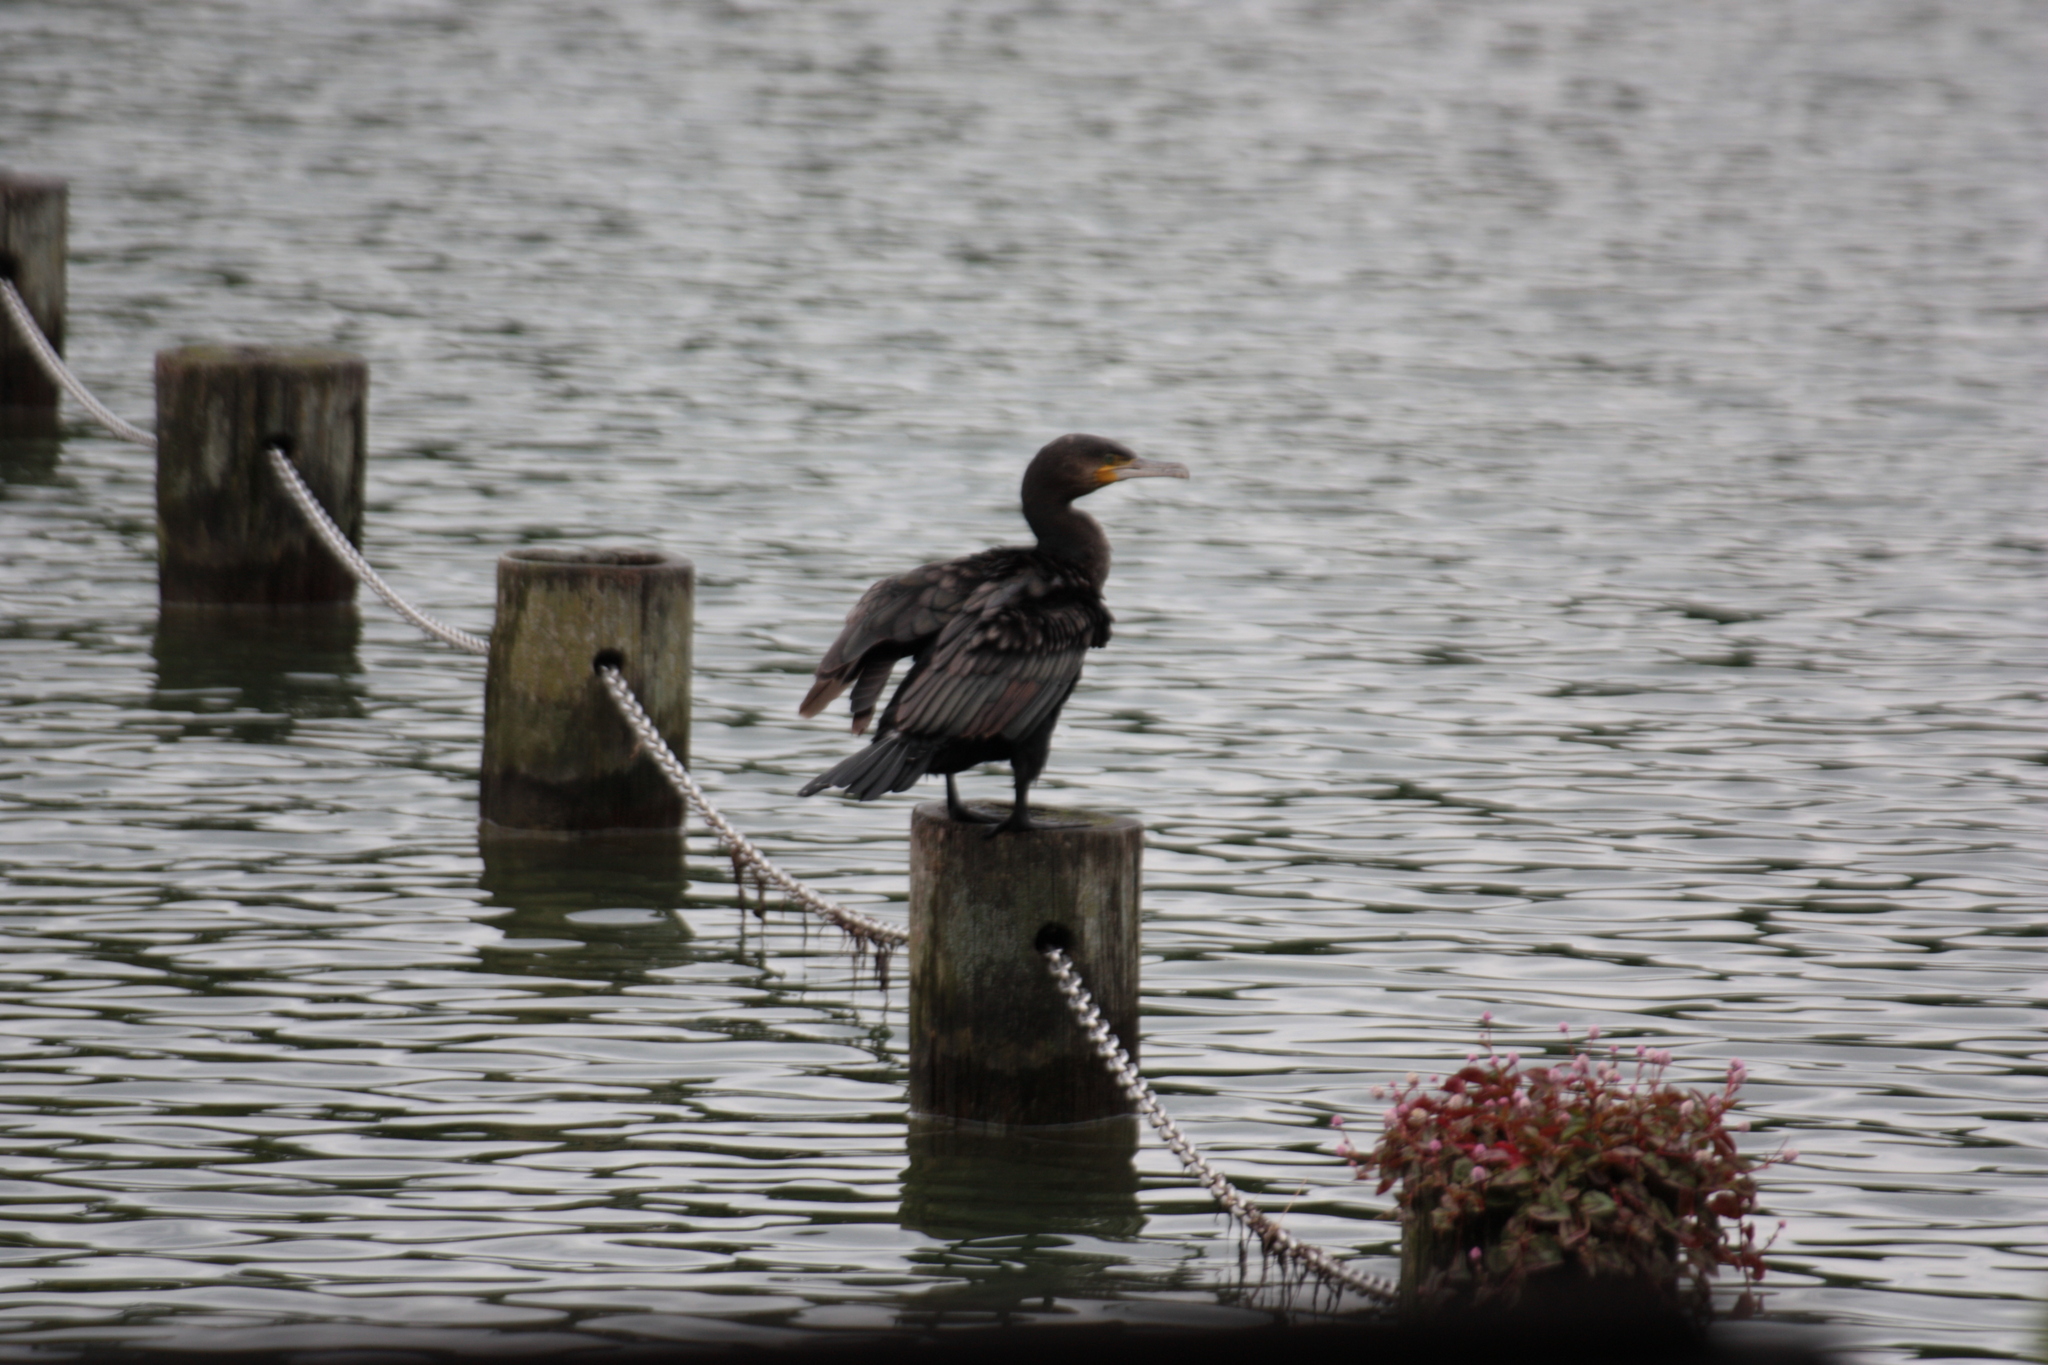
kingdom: Animalia
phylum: Chordata
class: Aves
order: Suliformes
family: Phalacrocoracidae
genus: Phalacrocorax
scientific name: Phalacrocorax carbo
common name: Great cormorant
